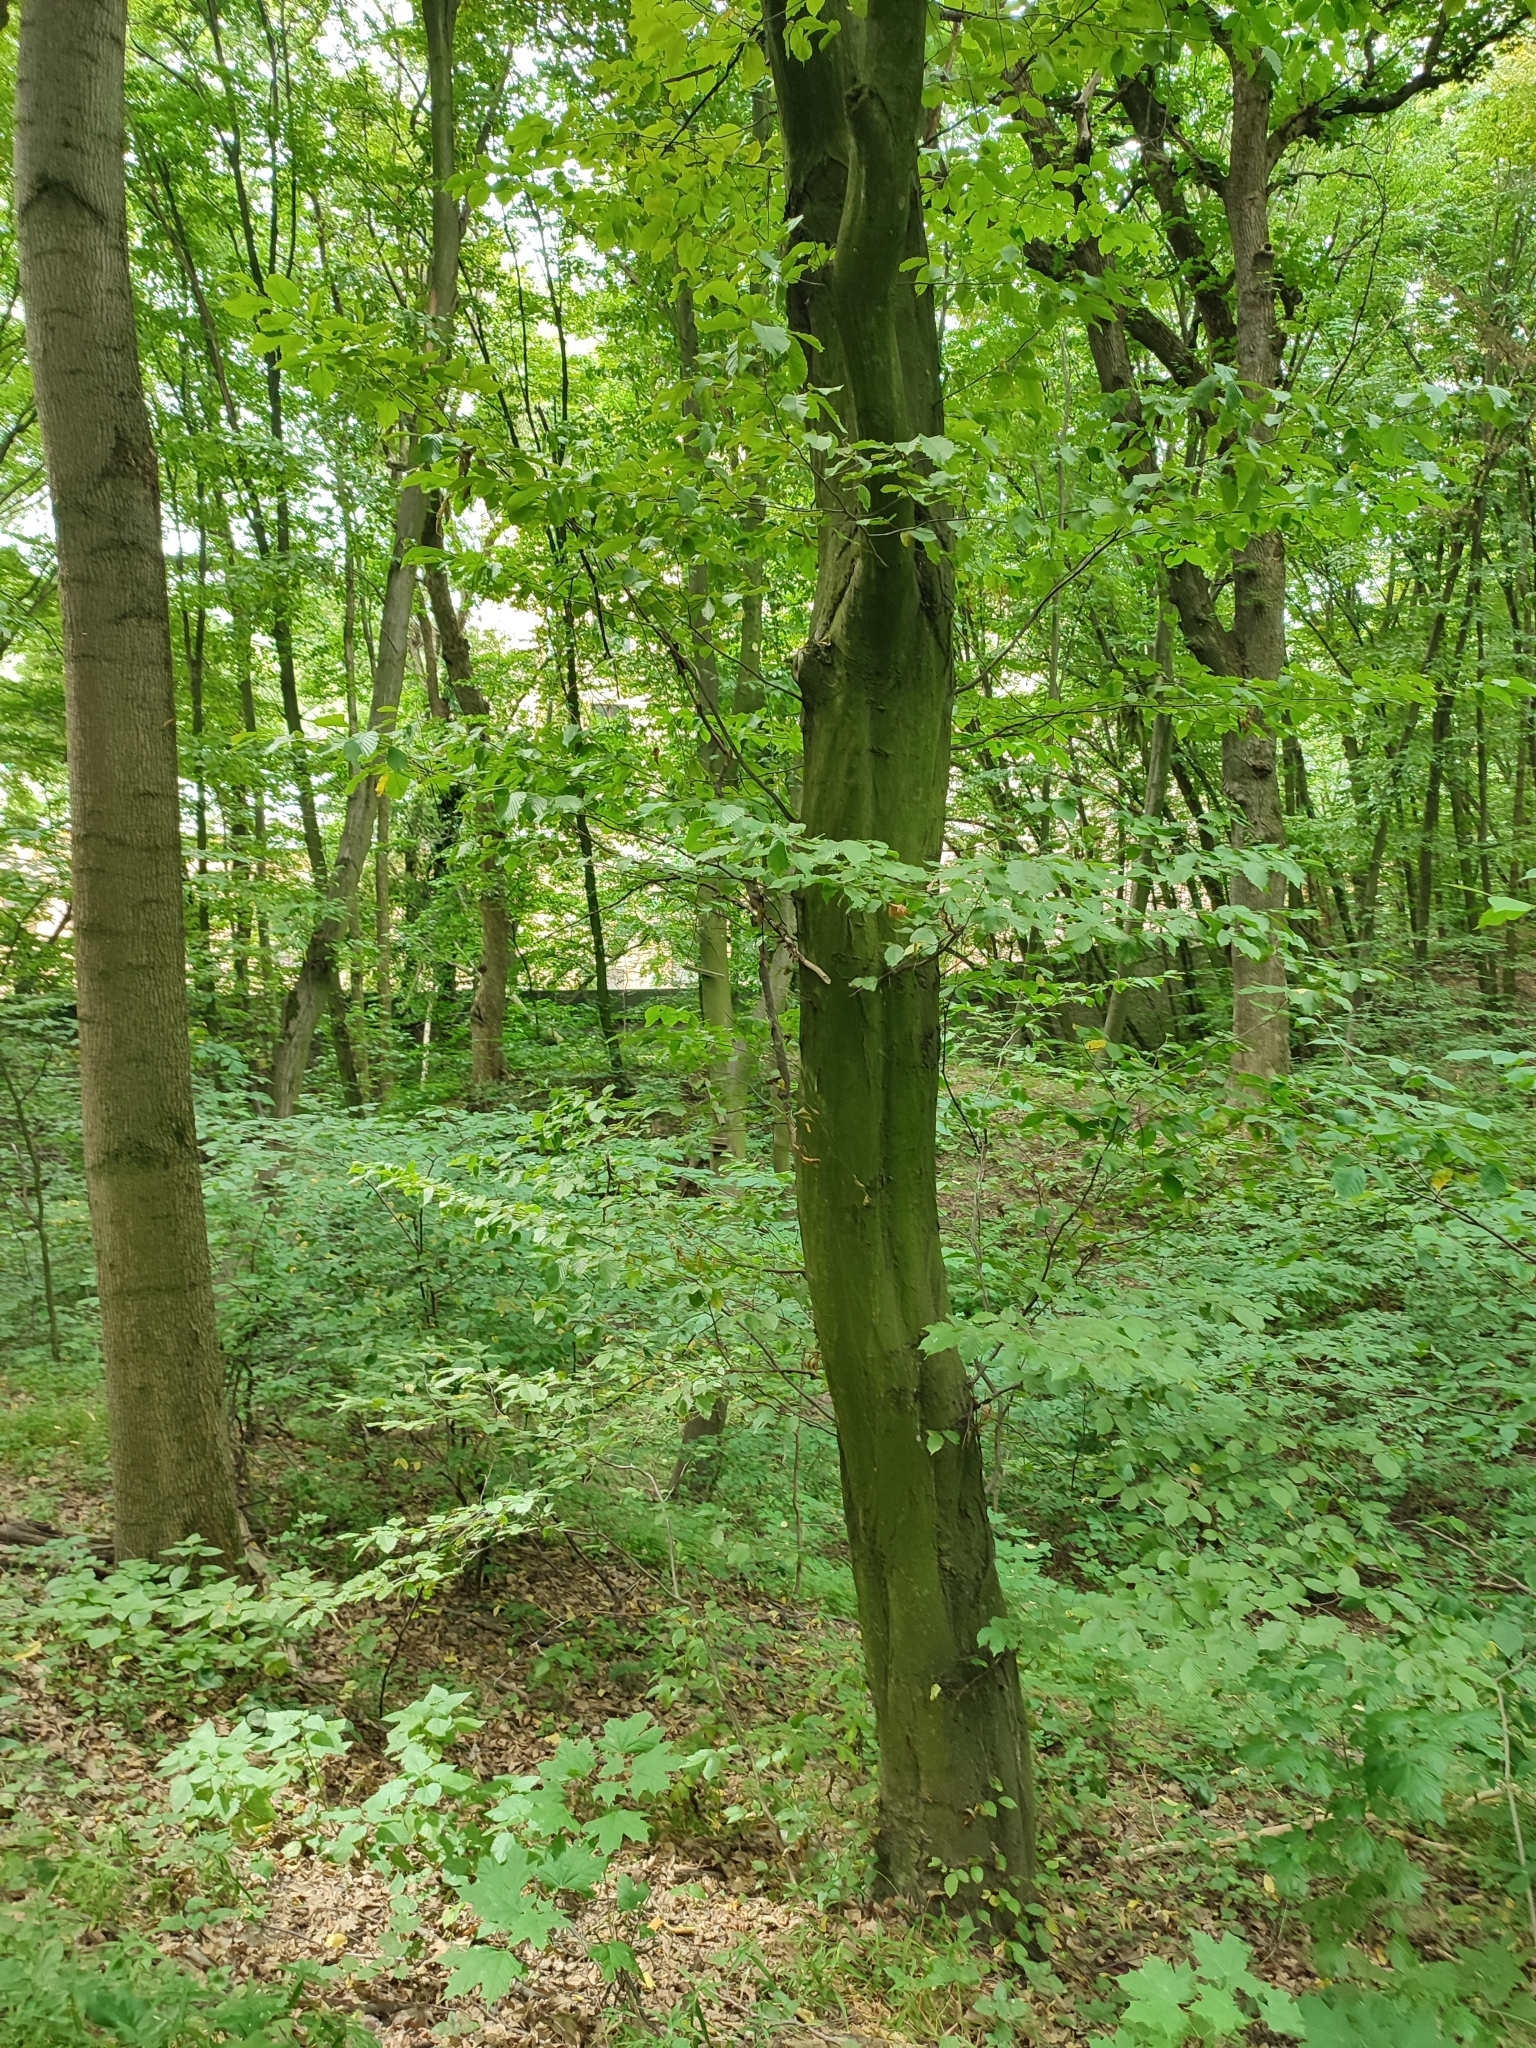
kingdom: Plantae
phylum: Tracheophyta
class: Magnoliopsida
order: Fagales
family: Betulaceae
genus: Carpinus
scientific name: Carpinus betulus
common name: Hornbeam
